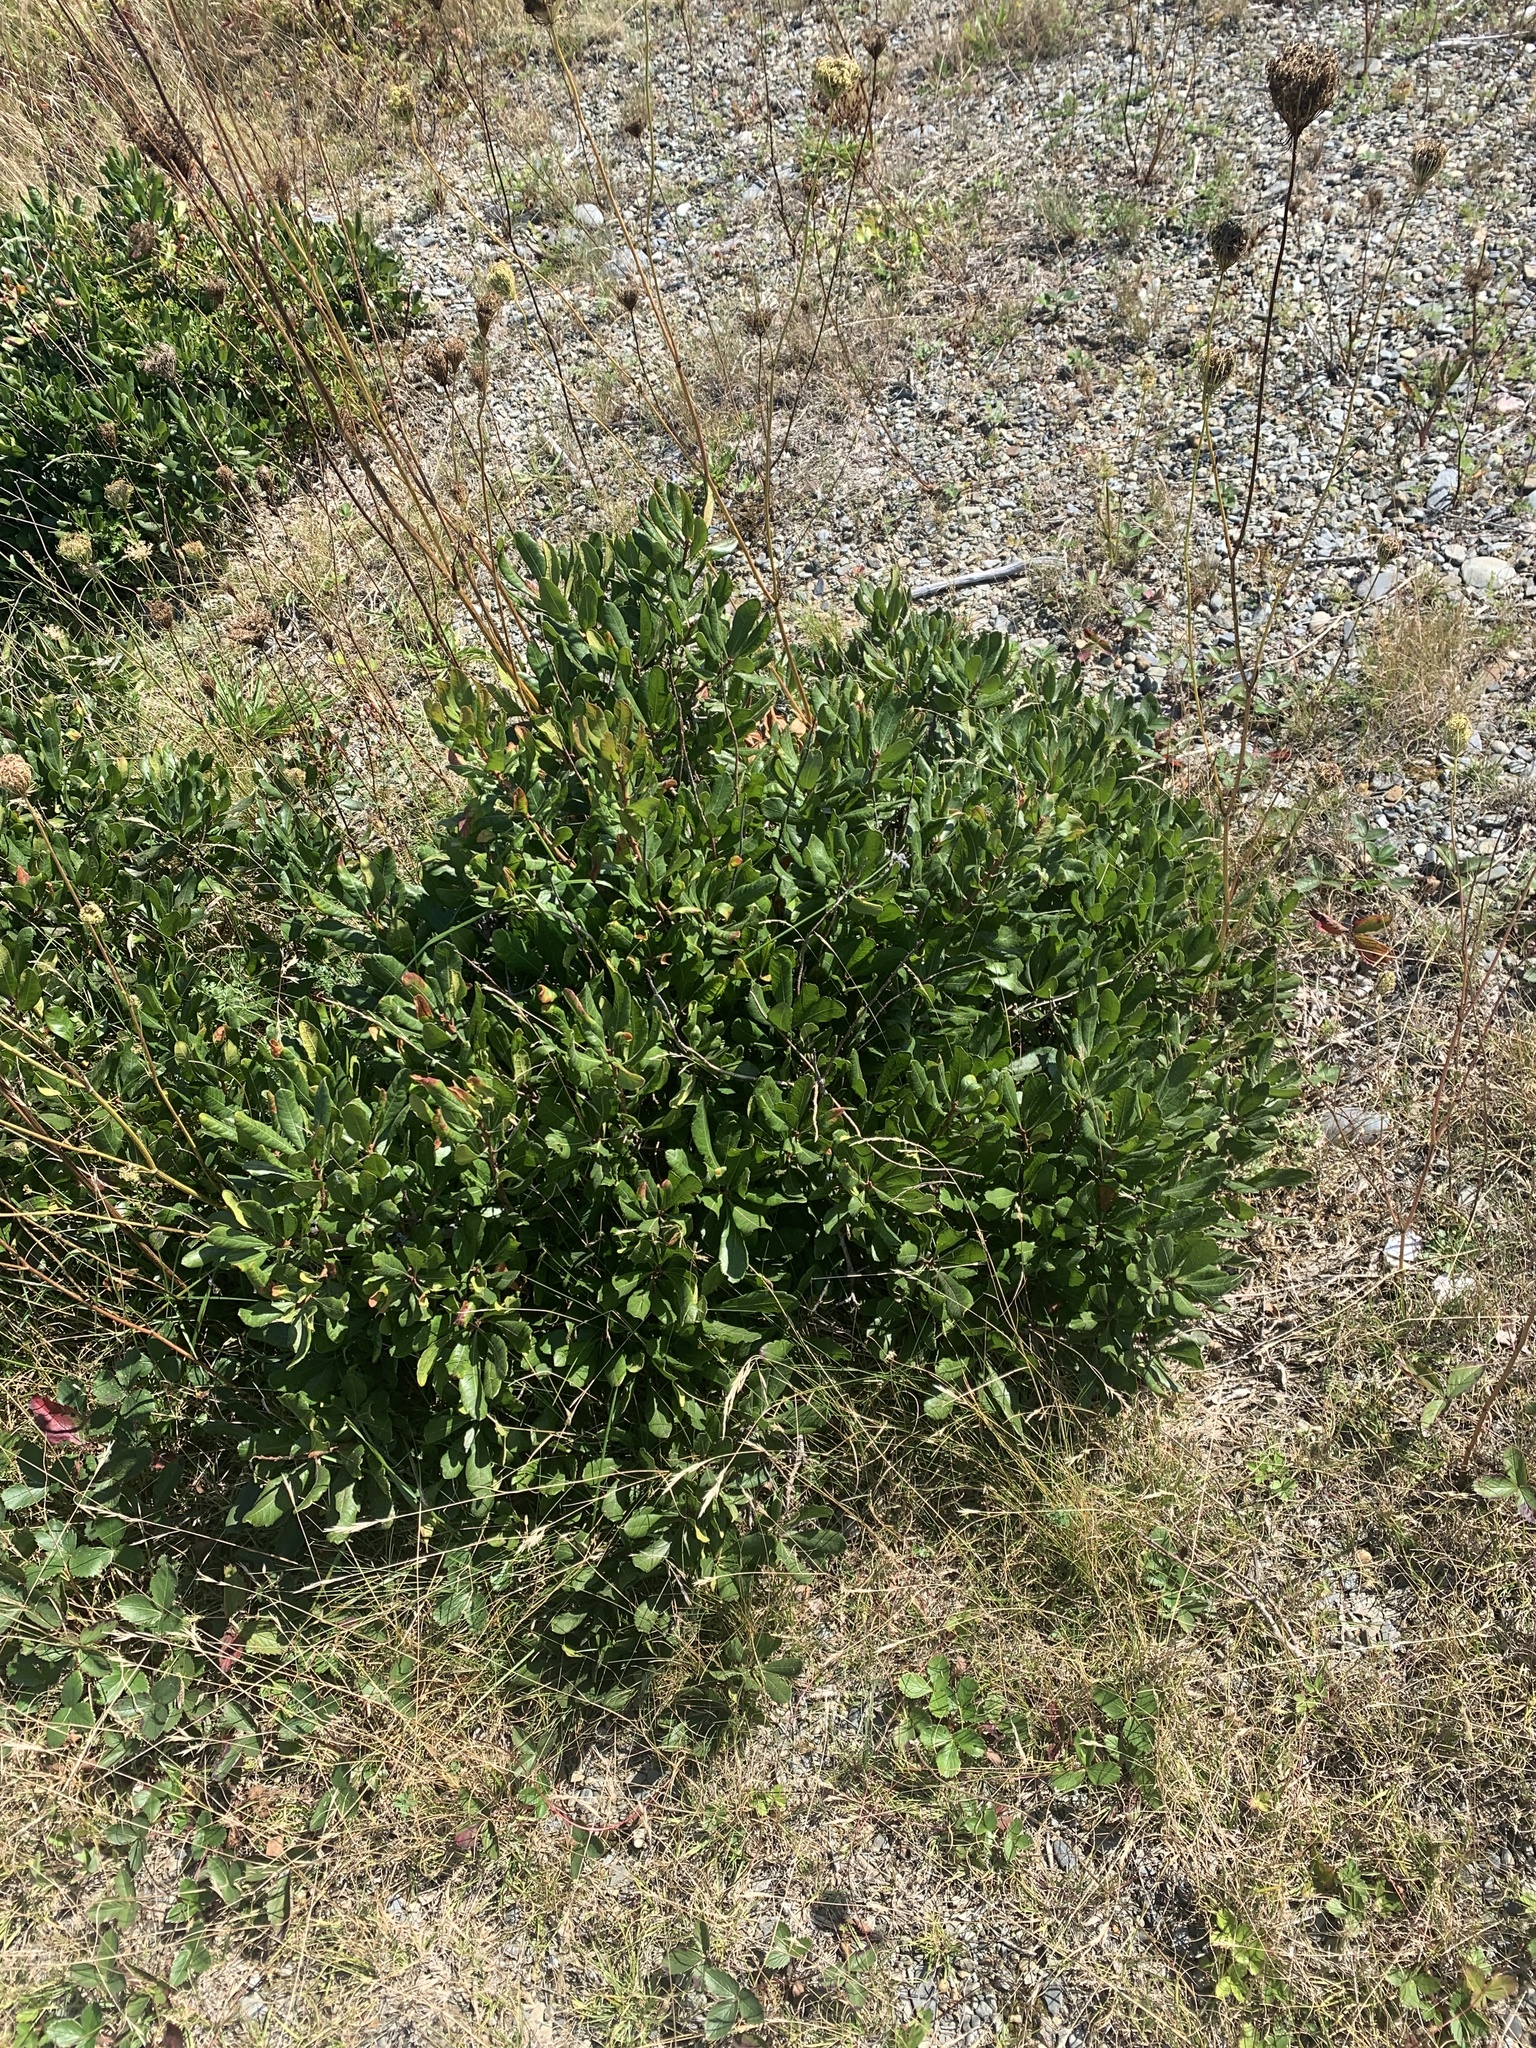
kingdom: Plantae
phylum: Tracheophyta
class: Magnoliopsida
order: Fagales
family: Myricaceae
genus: Morella
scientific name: Morella pensylvanica
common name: Northern bayberry
